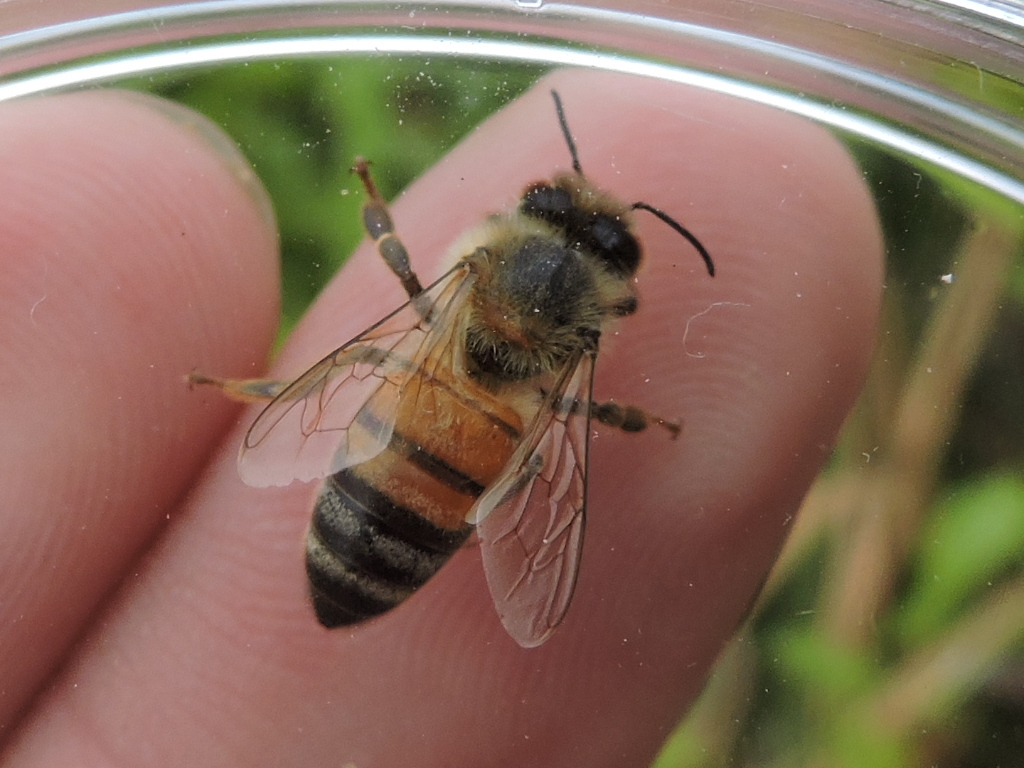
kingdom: Animalia
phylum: Arthropoda
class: Insecta
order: Hymenoptera
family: Apidae
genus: Apis
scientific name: Apis mellifera
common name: Honey bee
